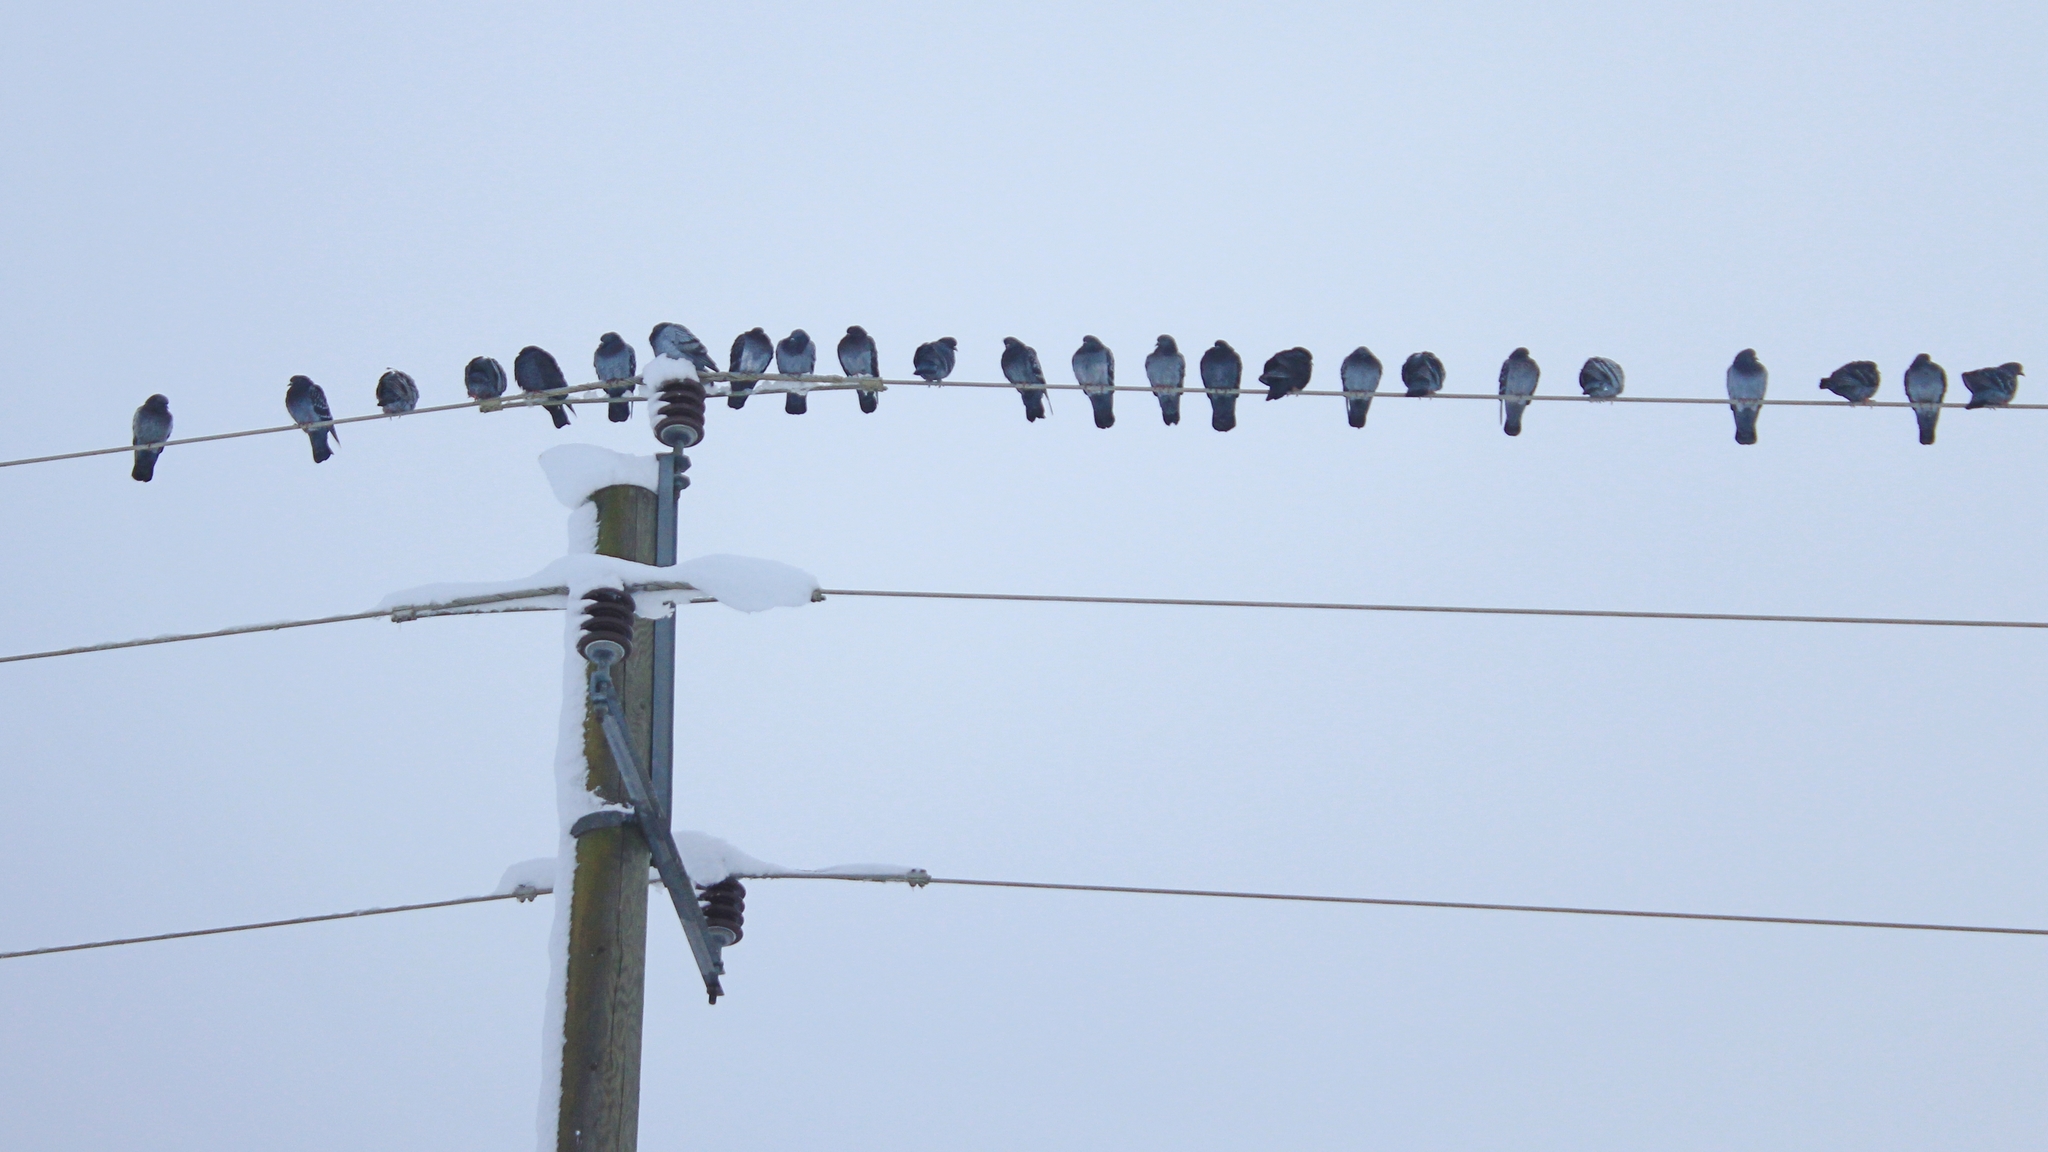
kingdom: Animalia
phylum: Chordata
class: Aves
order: Columbiformes
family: Columbidae
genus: Columba
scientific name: Columba livia
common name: Rock pigeon
